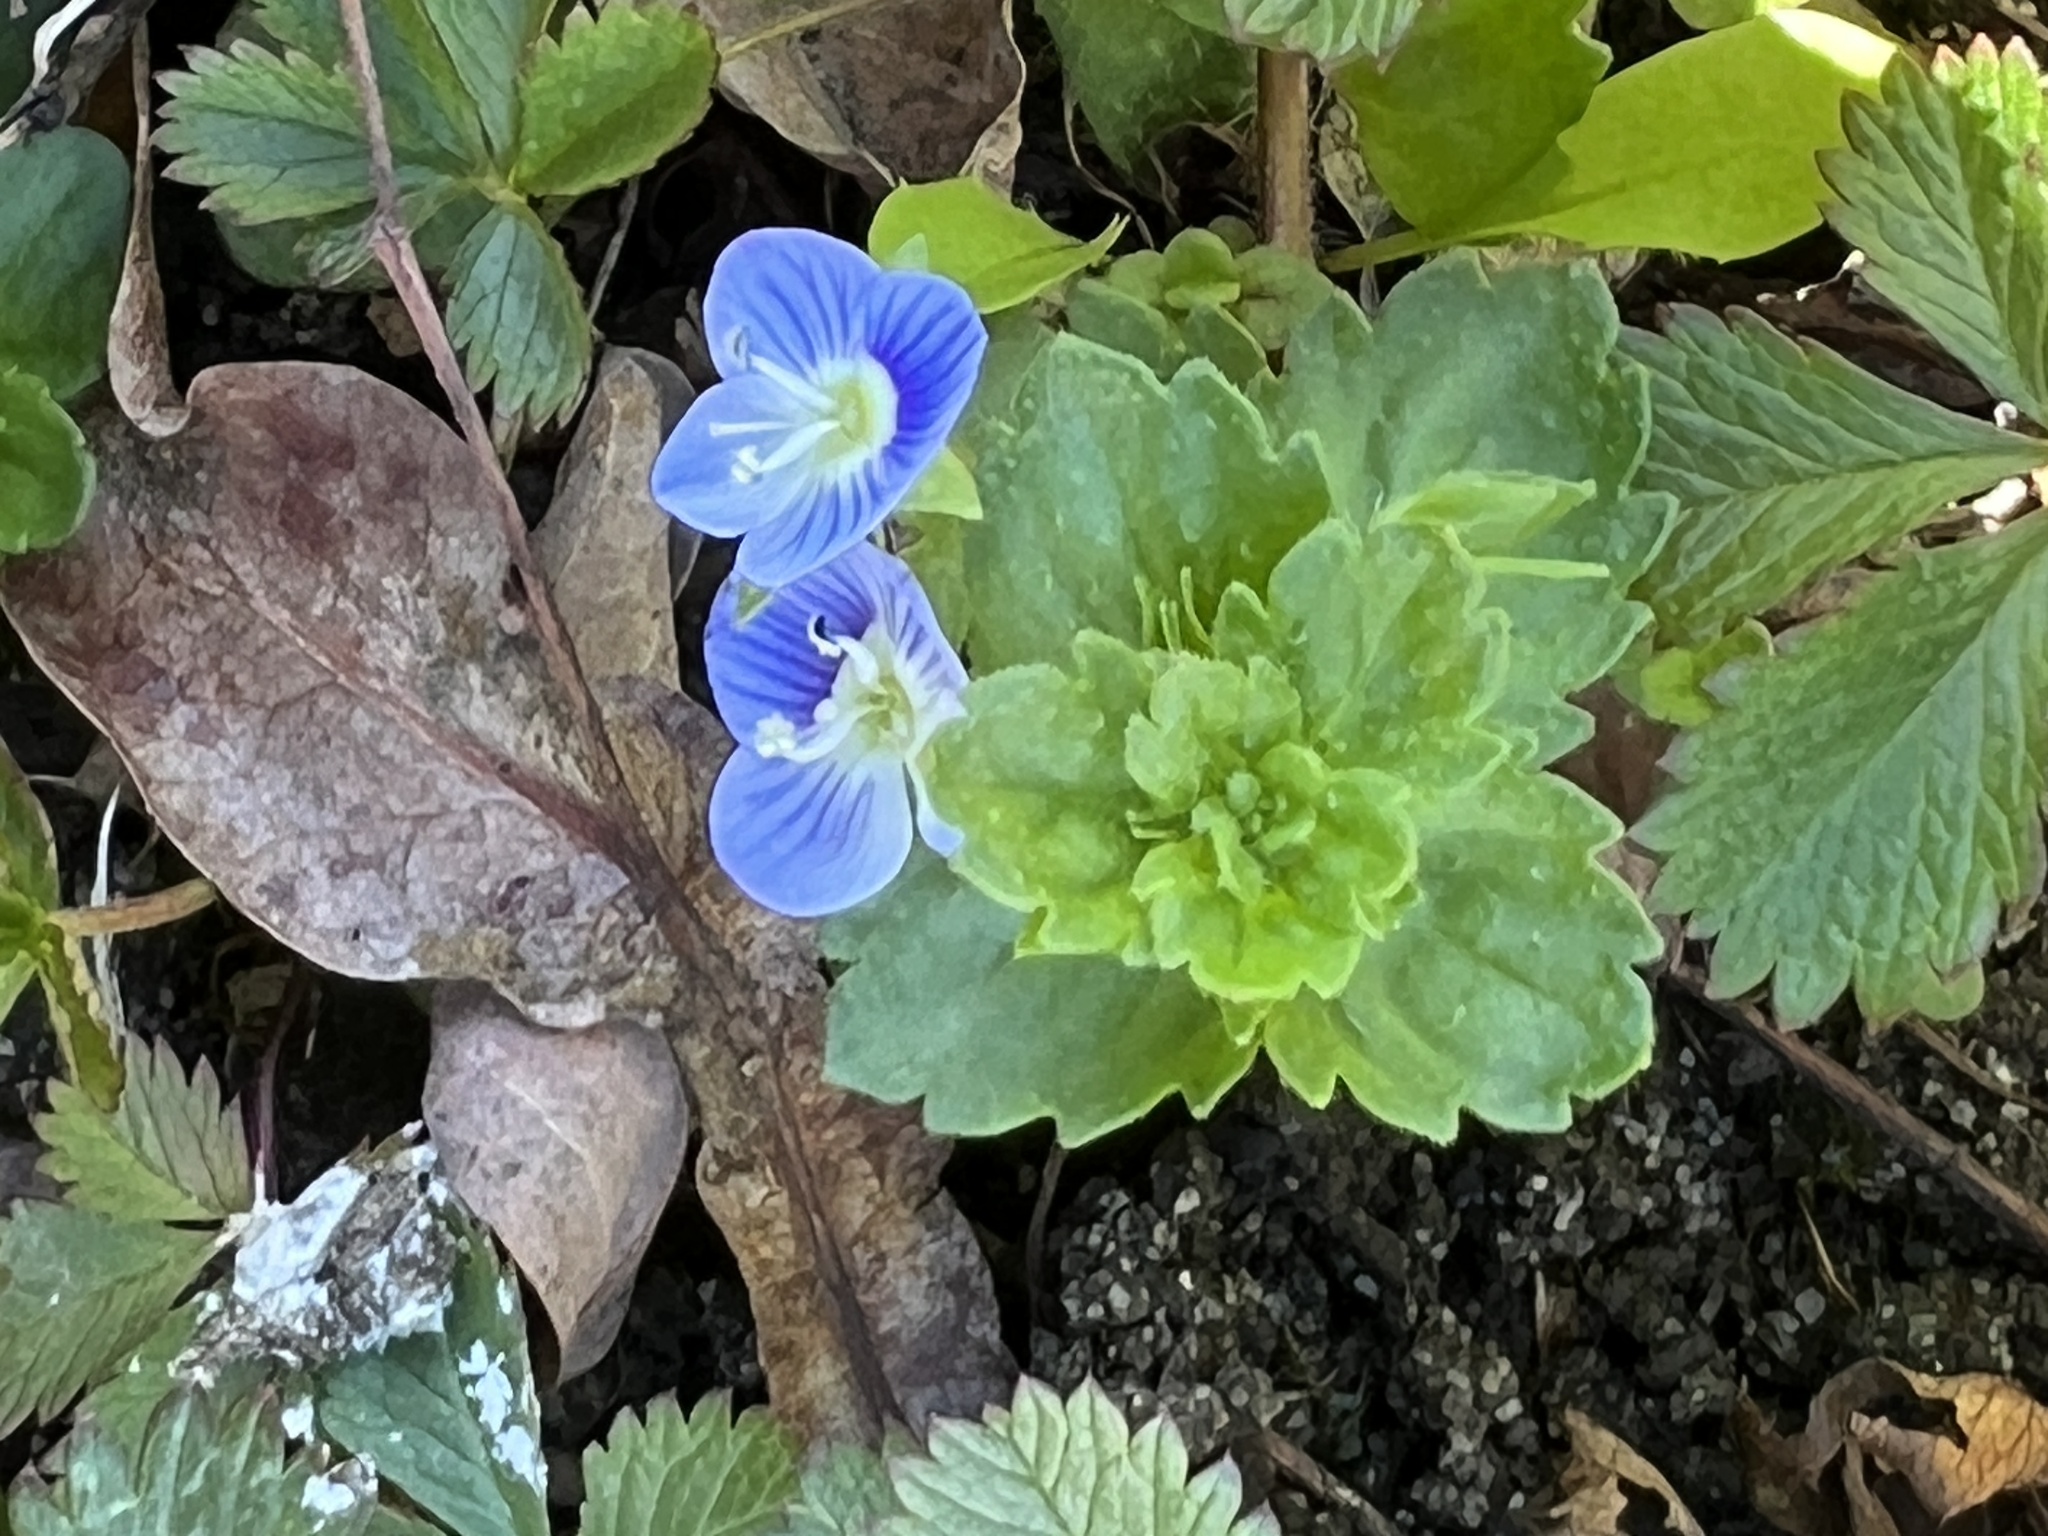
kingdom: Plantae
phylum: Tracheophyta
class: Magnoliopsida
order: Lamiales
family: Plantaginaceae
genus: Veronica
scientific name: Veronica persica
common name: Common field-speedwell
